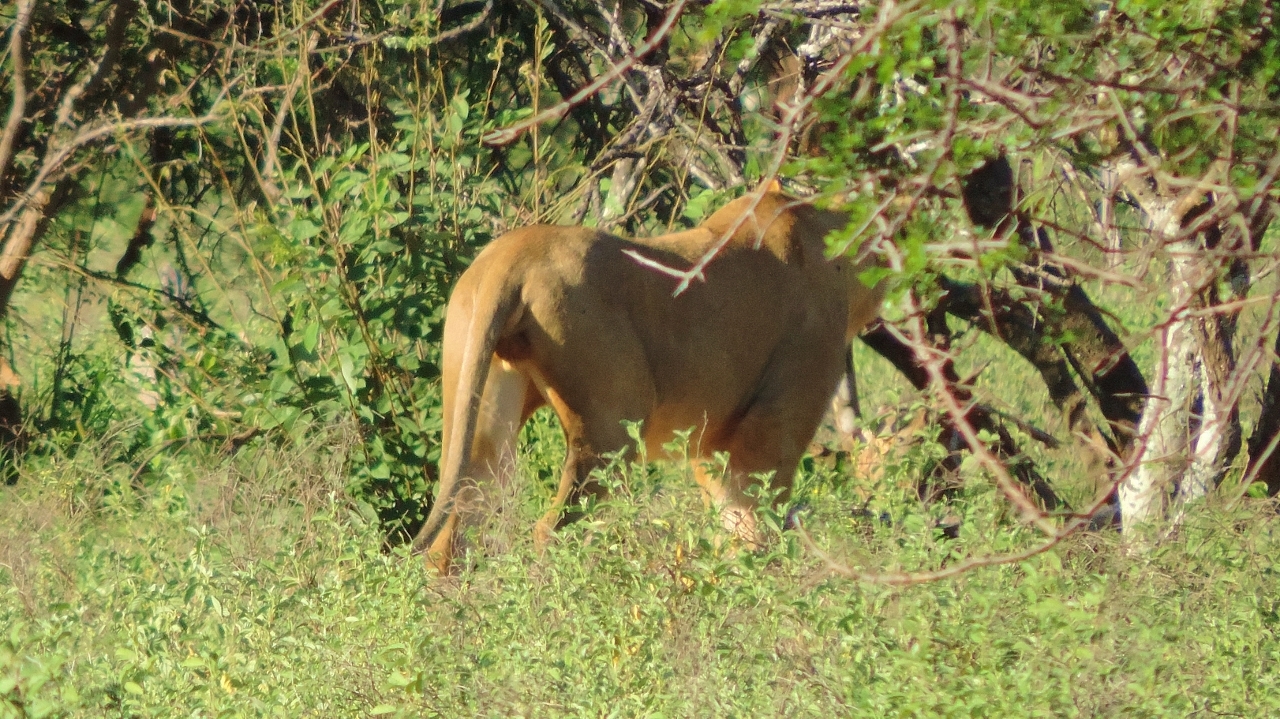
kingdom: Animalia
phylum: Chordata
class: Mammalia
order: Carnivora
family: Felidae
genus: Panthera
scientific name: Panthera leo
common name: Lion
